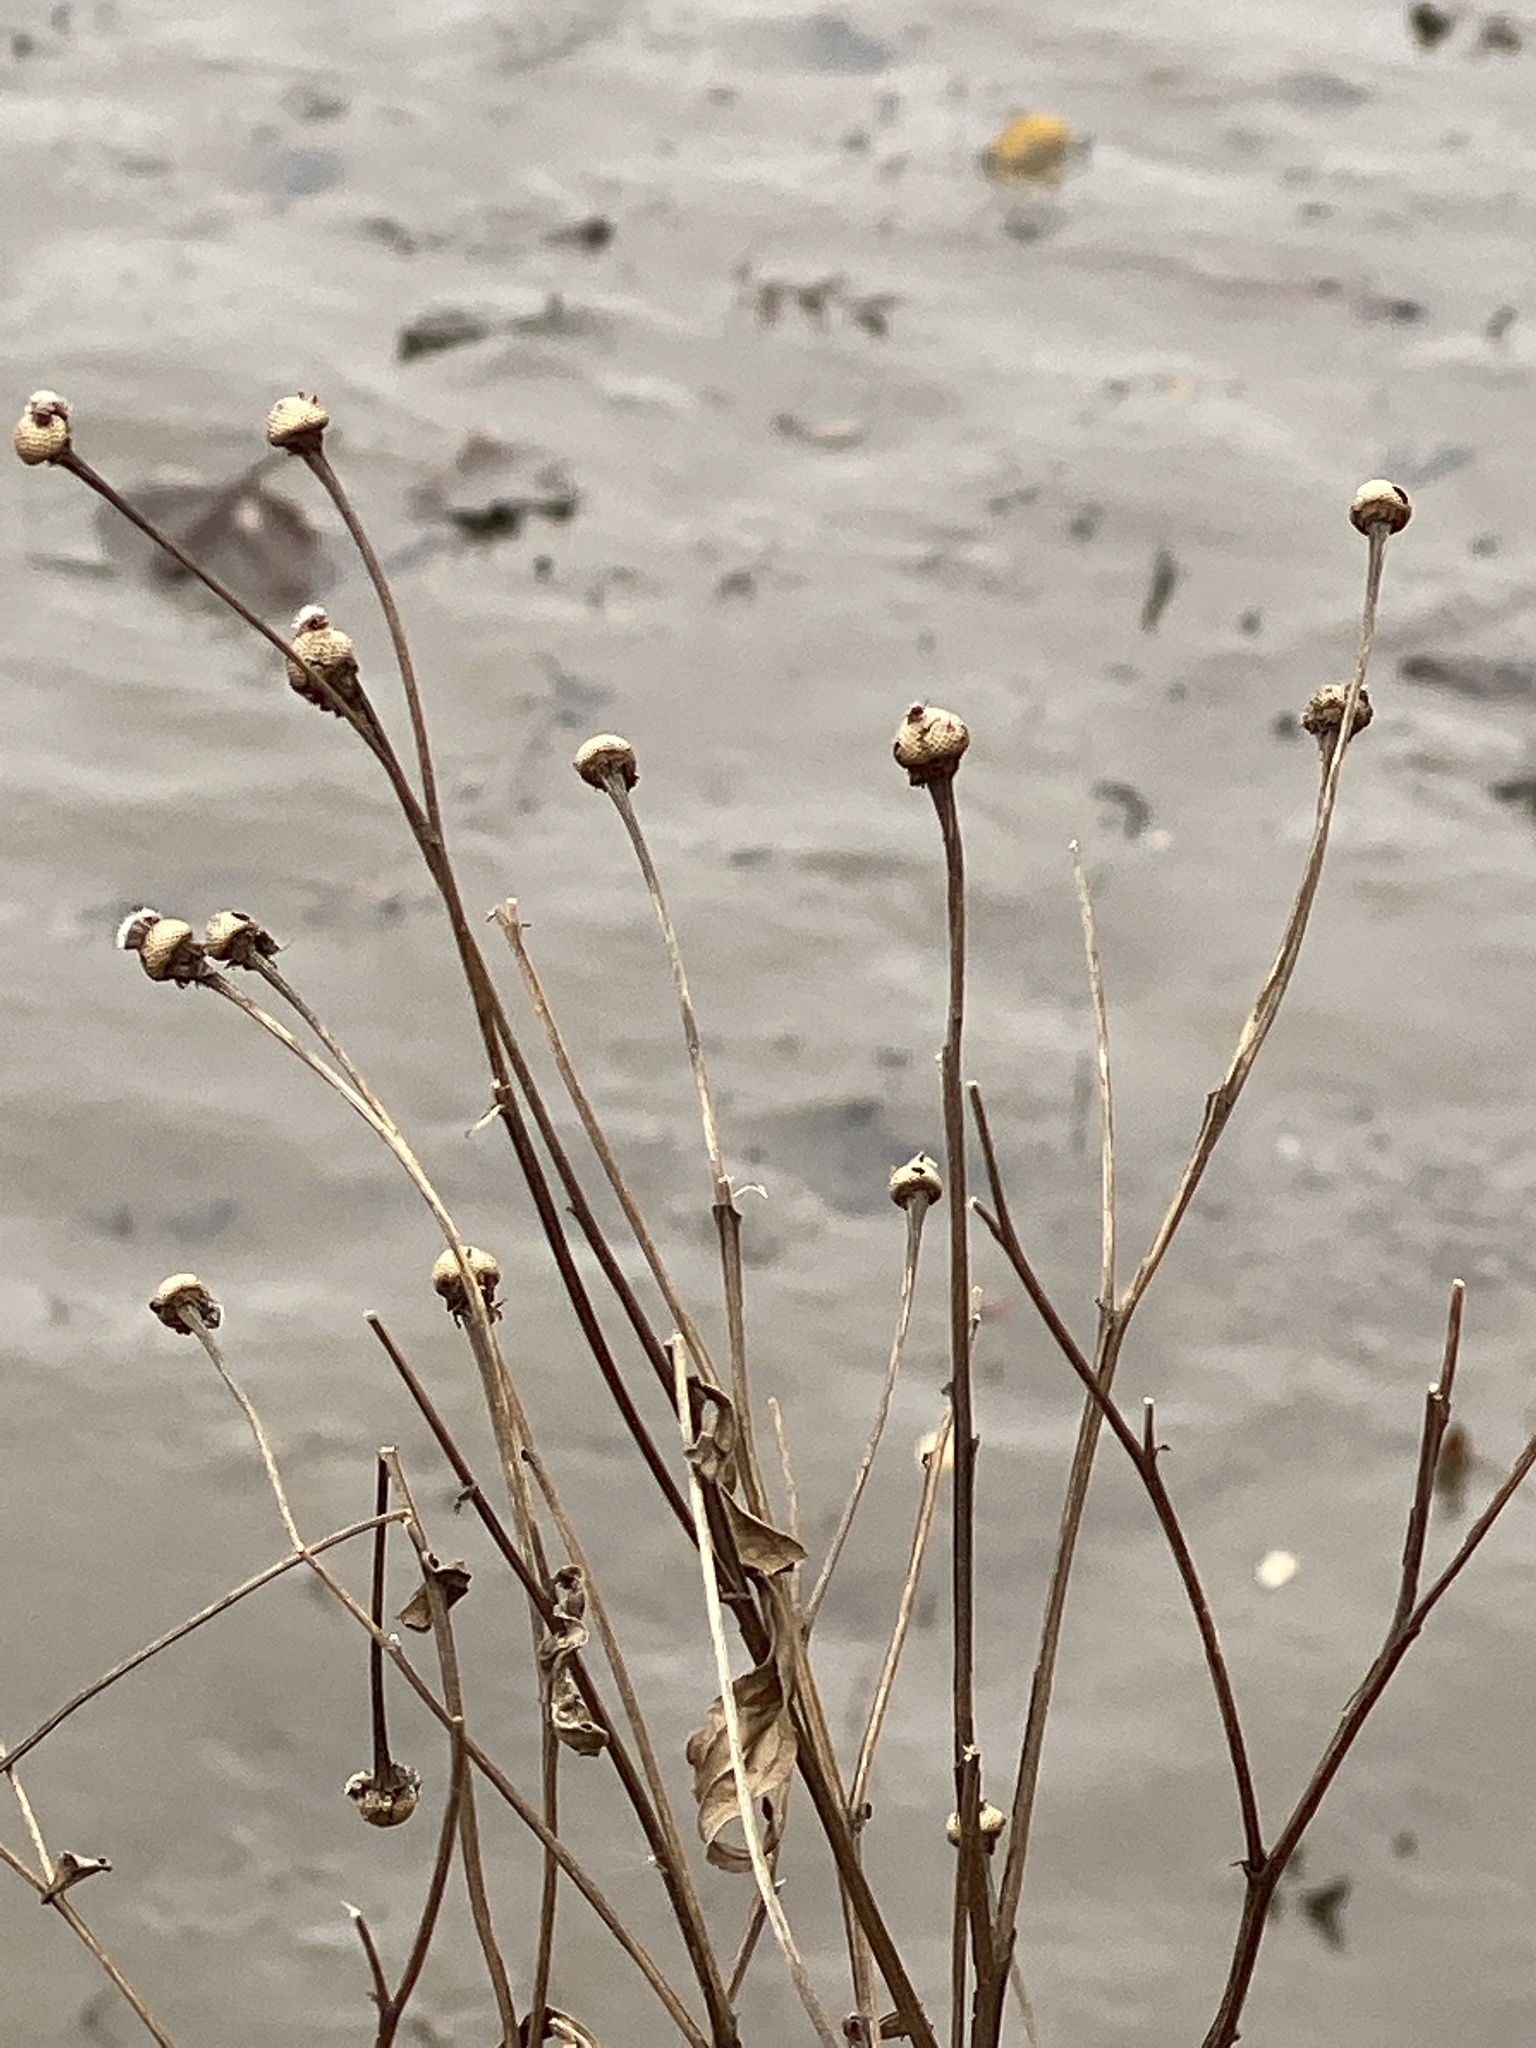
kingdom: Plantae
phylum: Tracheophyta
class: Magnoliopsida
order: Asterales
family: Asteraceae
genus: Helenium
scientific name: Helenium autumnale
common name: Sneezeweed
